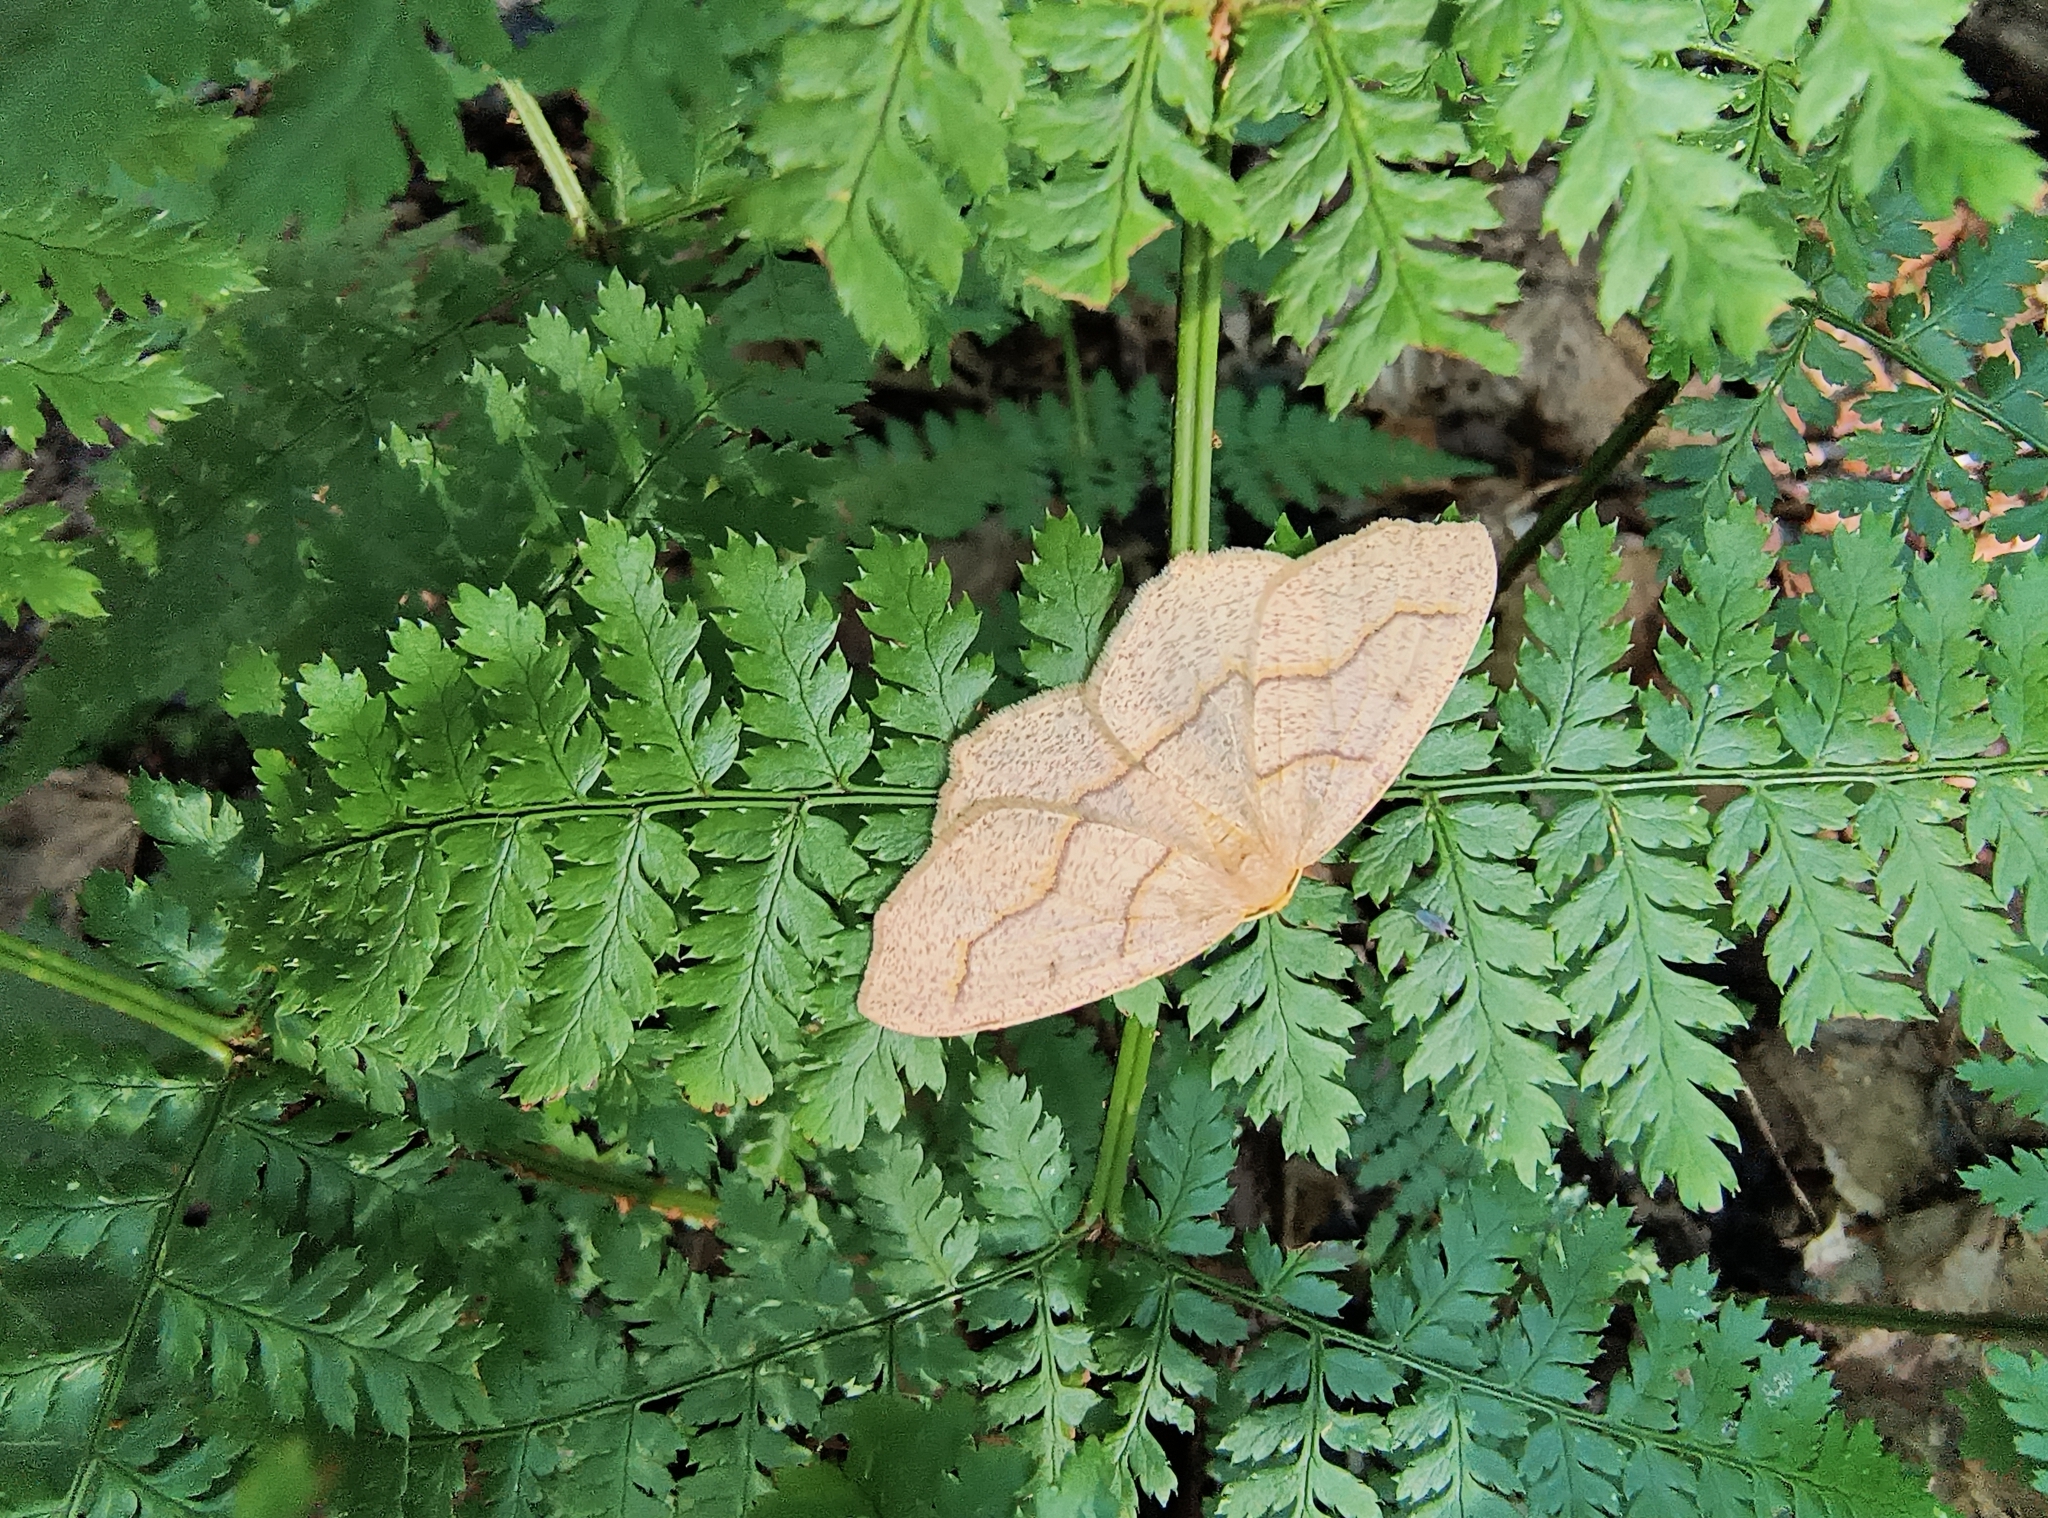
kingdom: Animalia
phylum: Arthropoda
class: Insecta
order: Lepidoptera
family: Geometridae
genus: Lambdina
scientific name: Lambdina fiscellaria
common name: Hemlock looper
